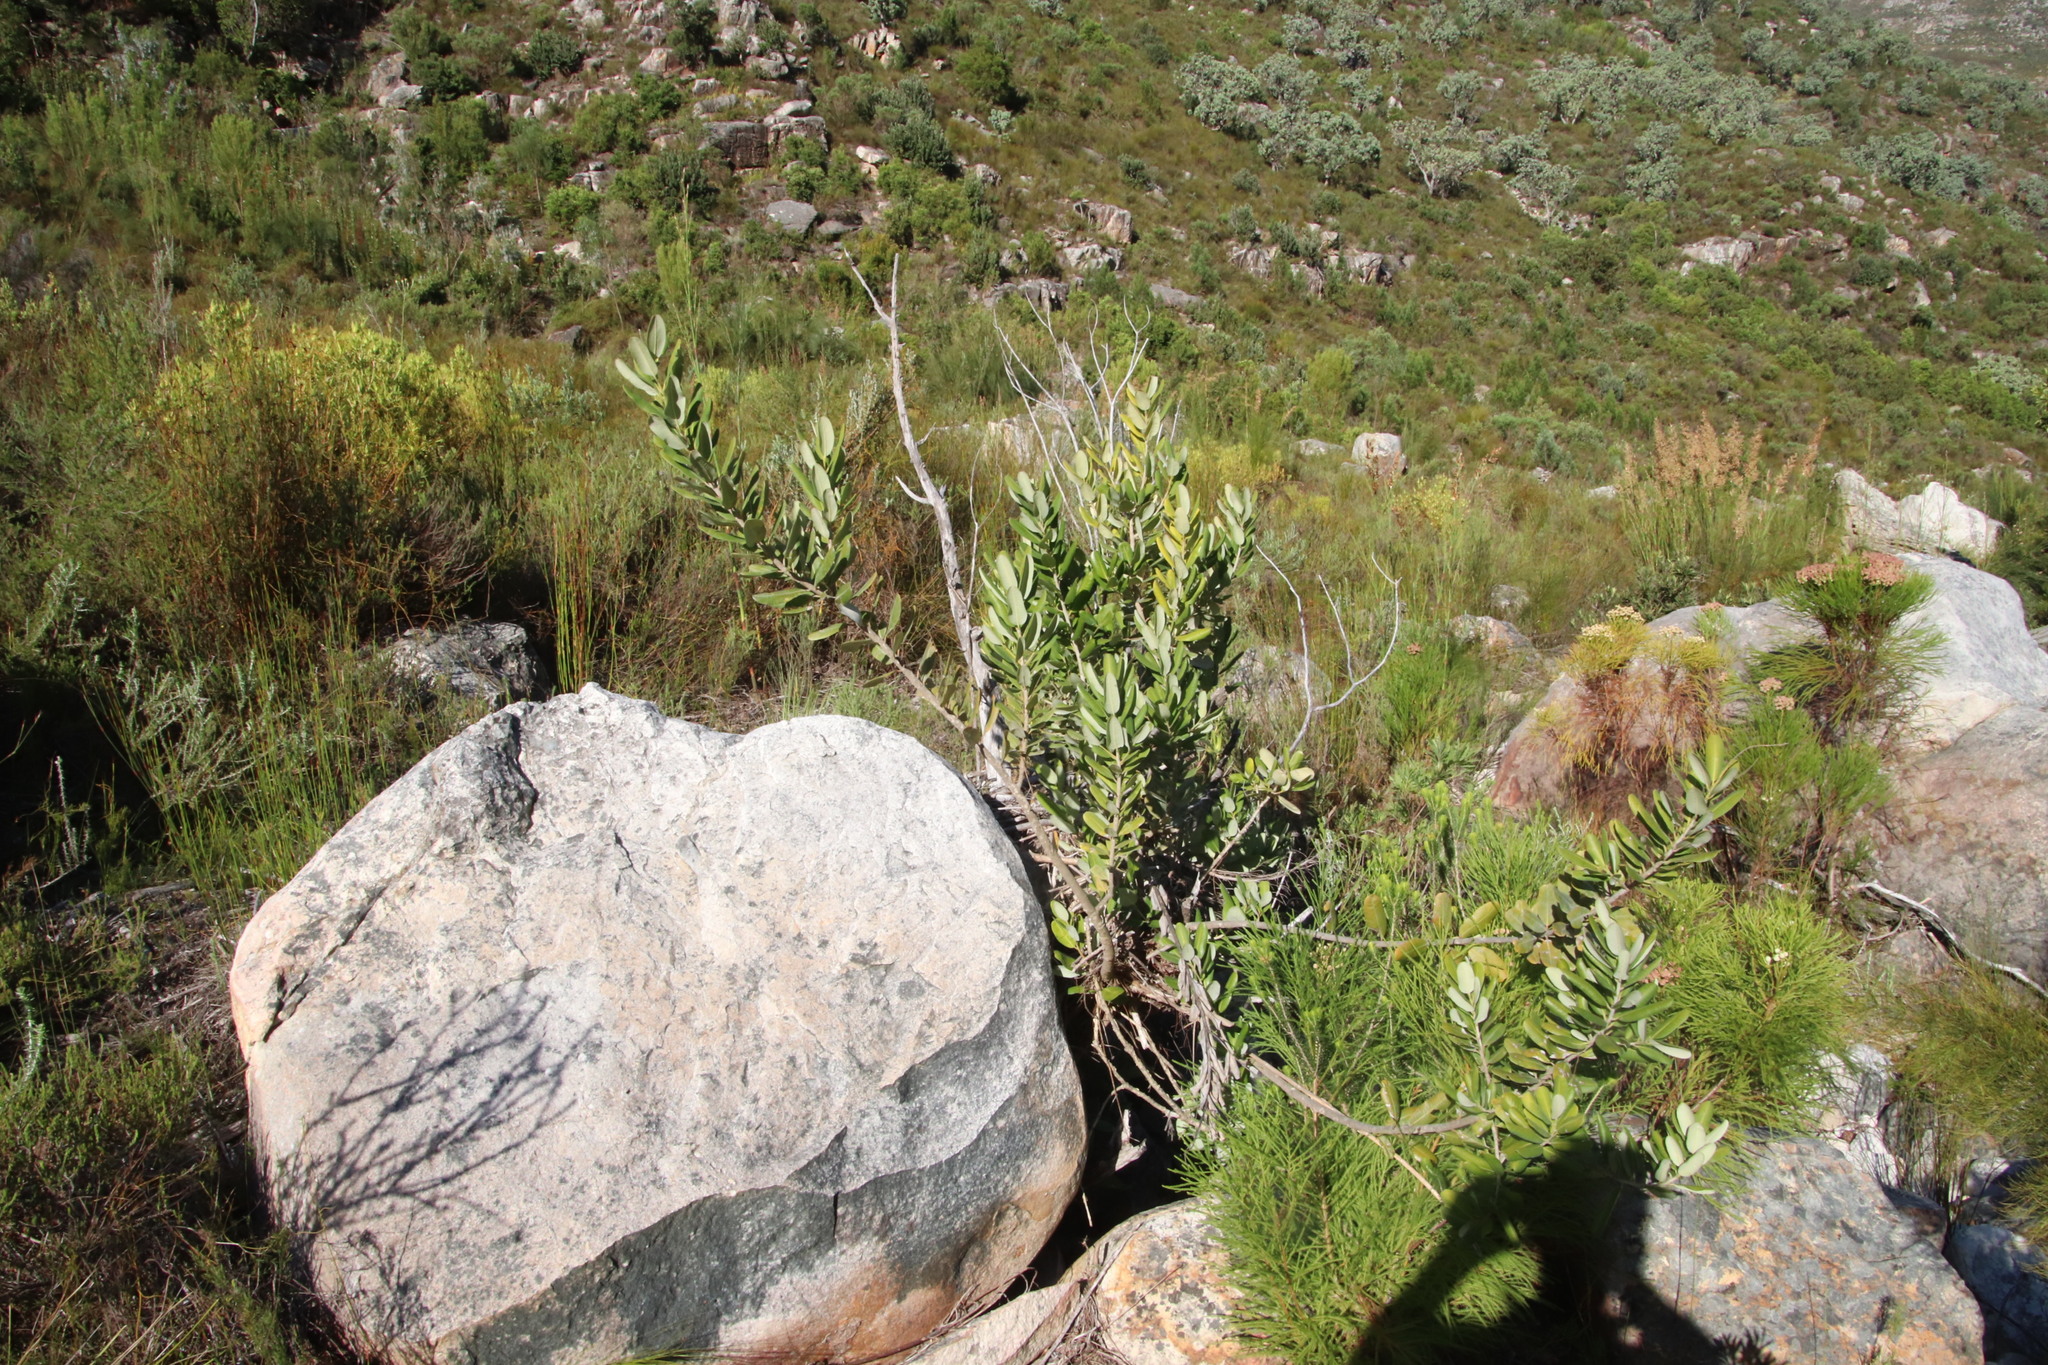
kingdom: Plantae
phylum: Tracheophyta
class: Magnoliopsida
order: Sapindales
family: Anacardiaceae
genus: Heeria
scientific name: Heeria argentea
